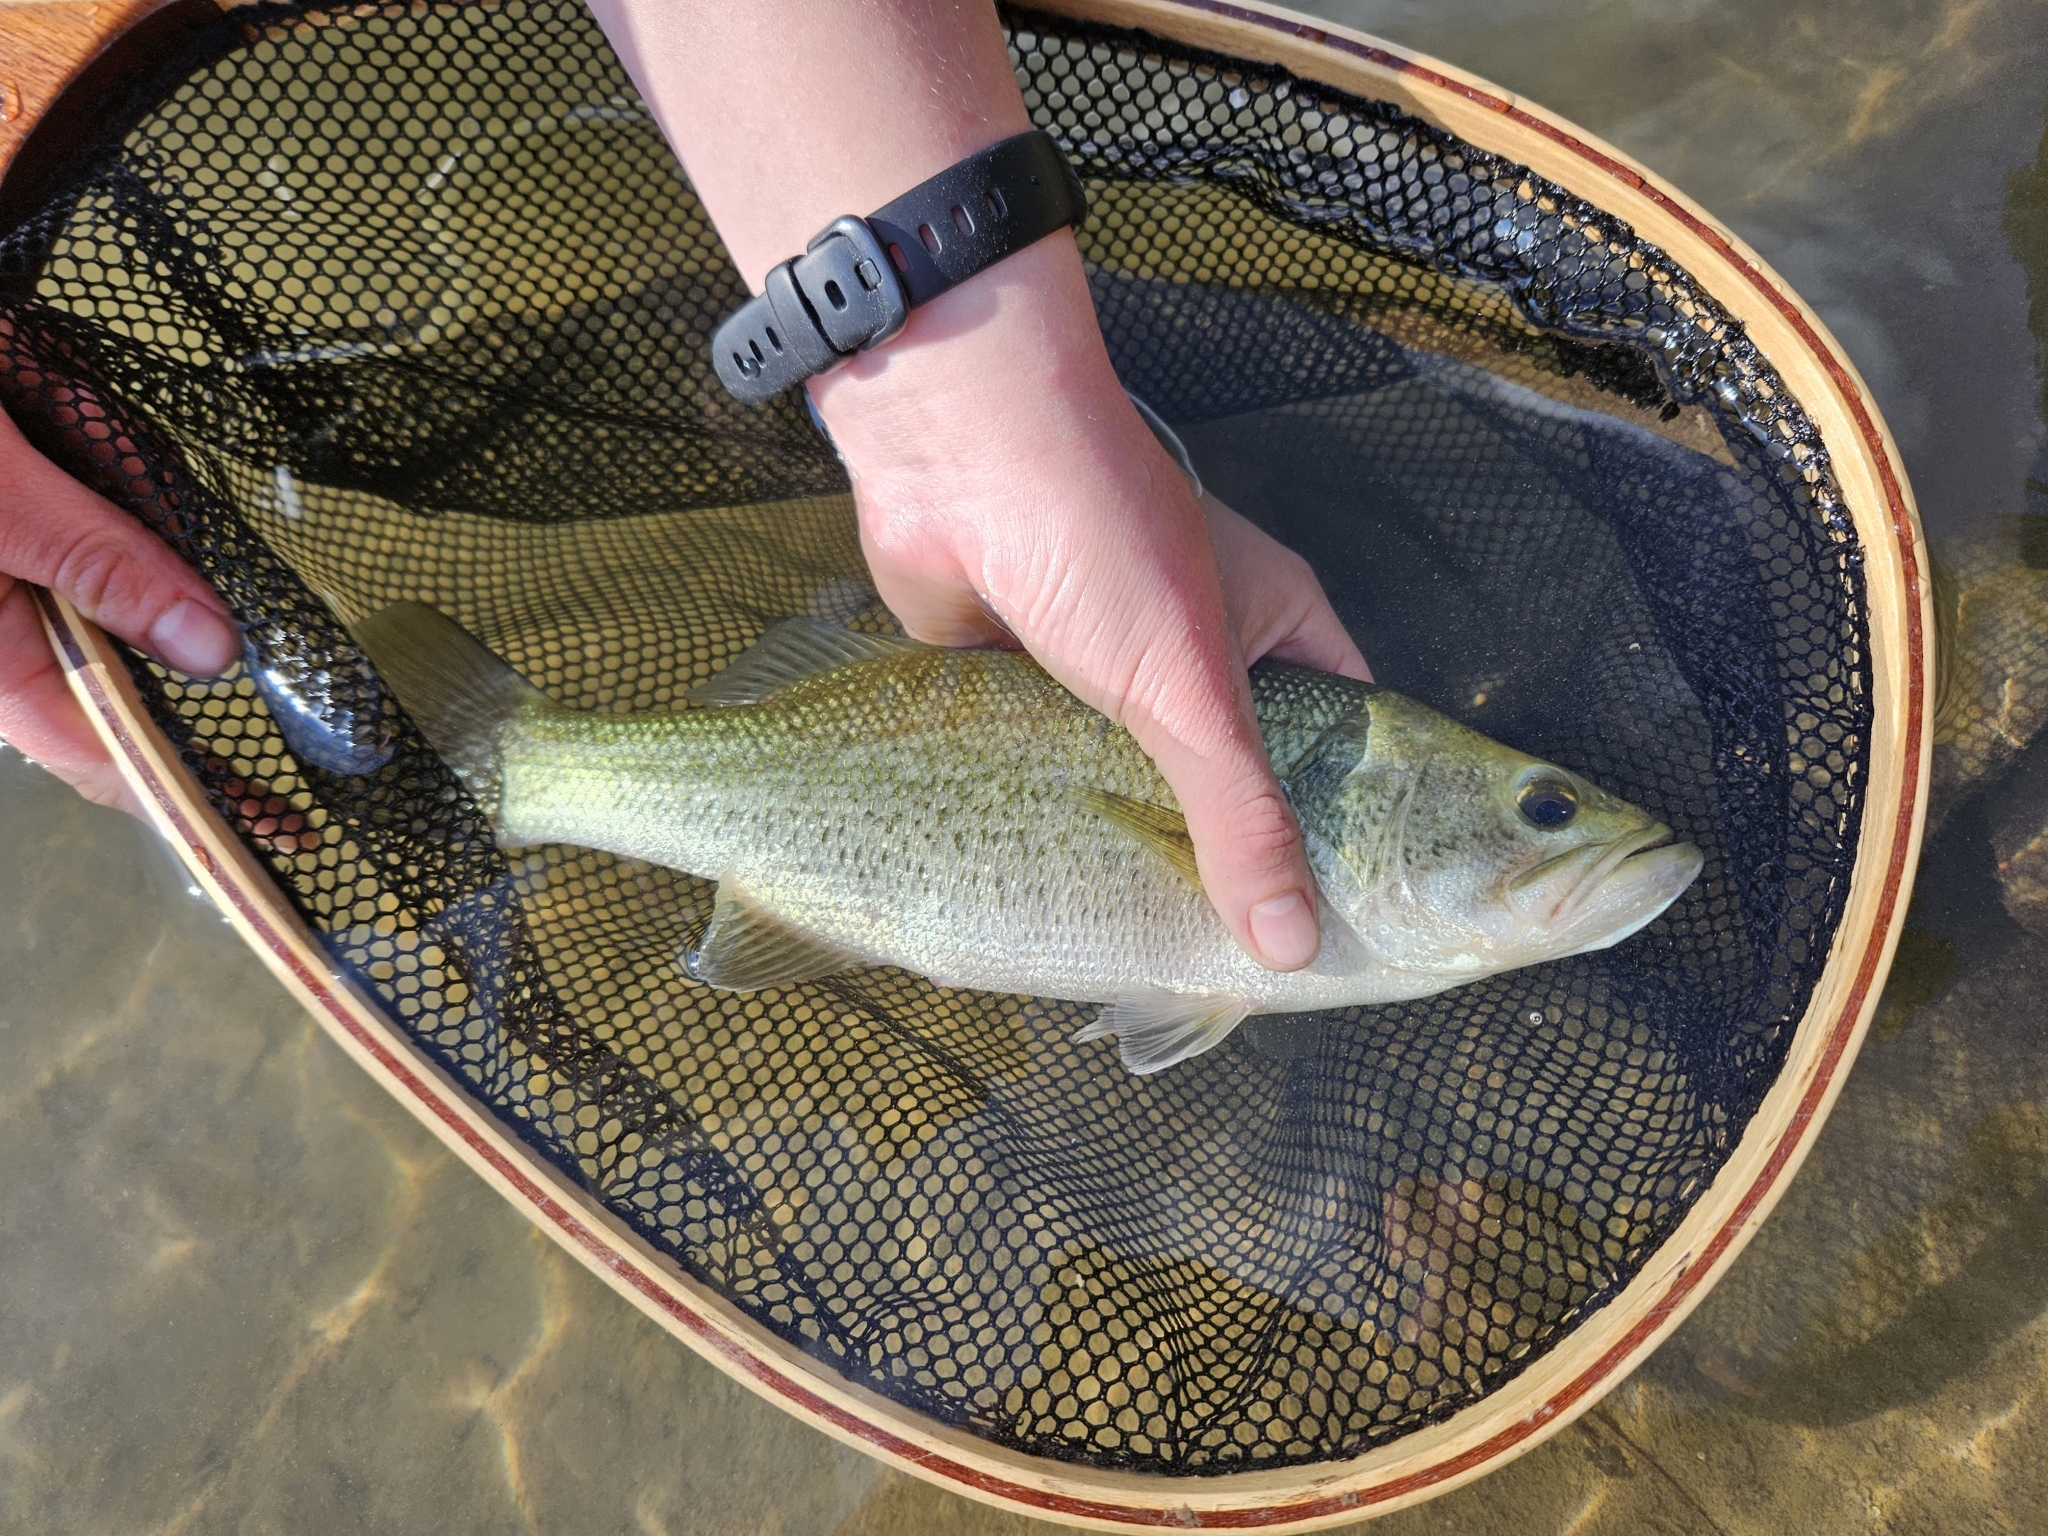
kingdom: Animalia
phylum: Chordata
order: Perciformes
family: Centrarchidae
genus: Micropterus
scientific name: Micropterus
